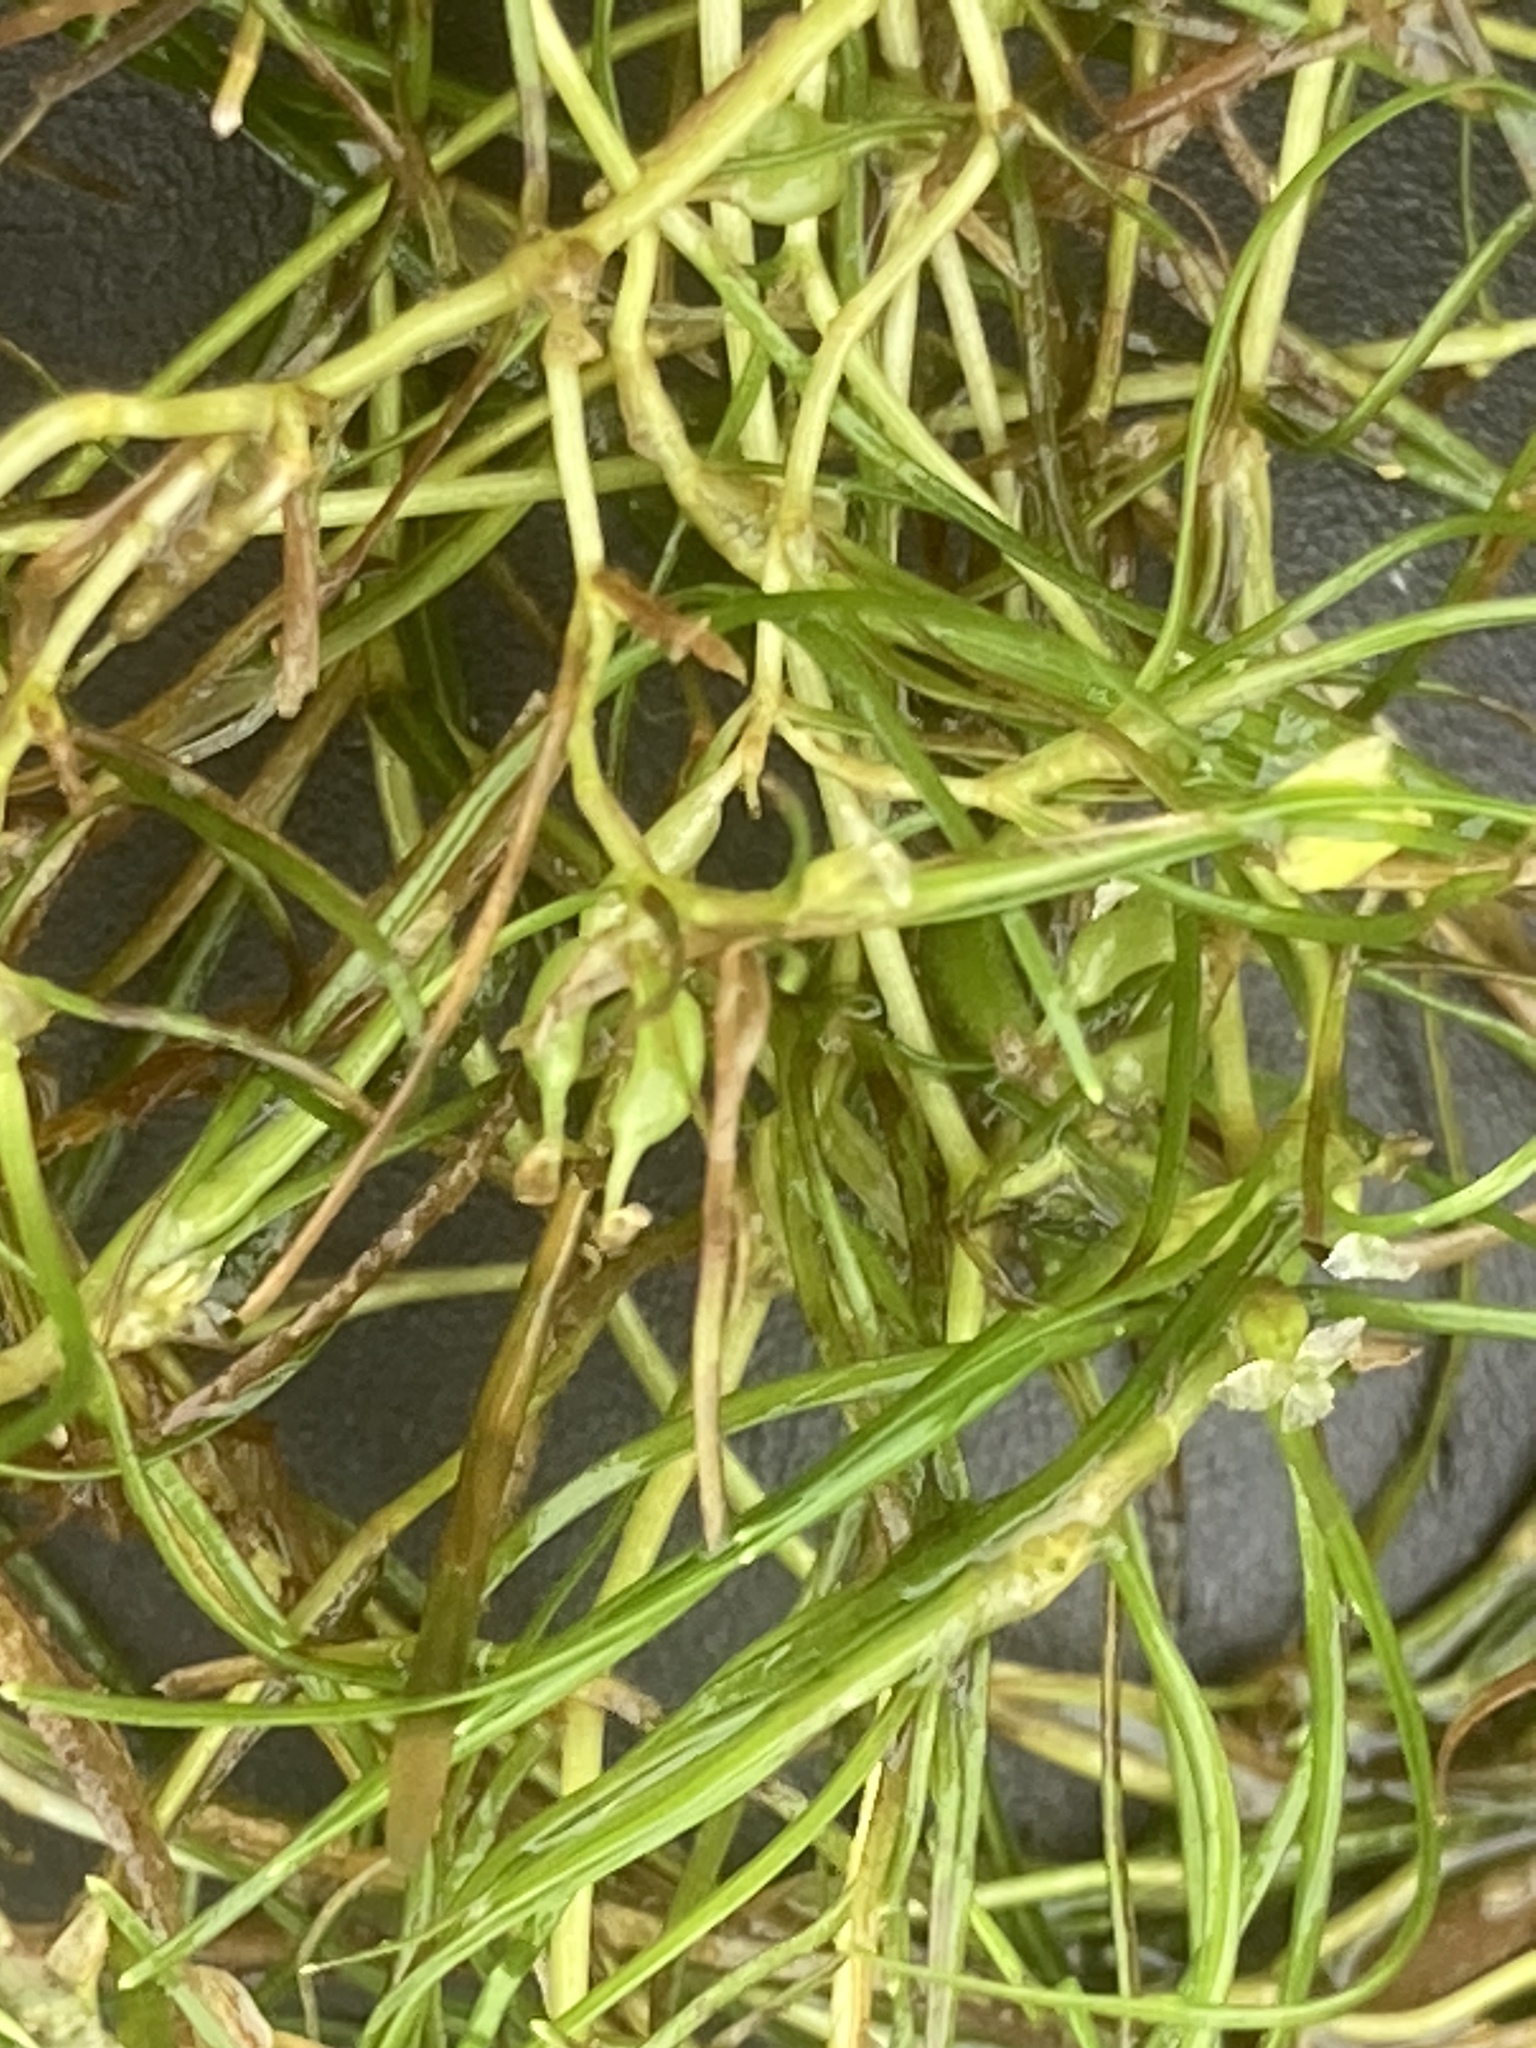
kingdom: Plantae
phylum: Tracheophyta
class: Liliopsida
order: Alismatales
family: Potamogetonaceae
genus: Zannichellia
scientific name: Zannichellia palustris
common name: Horned pondweed
